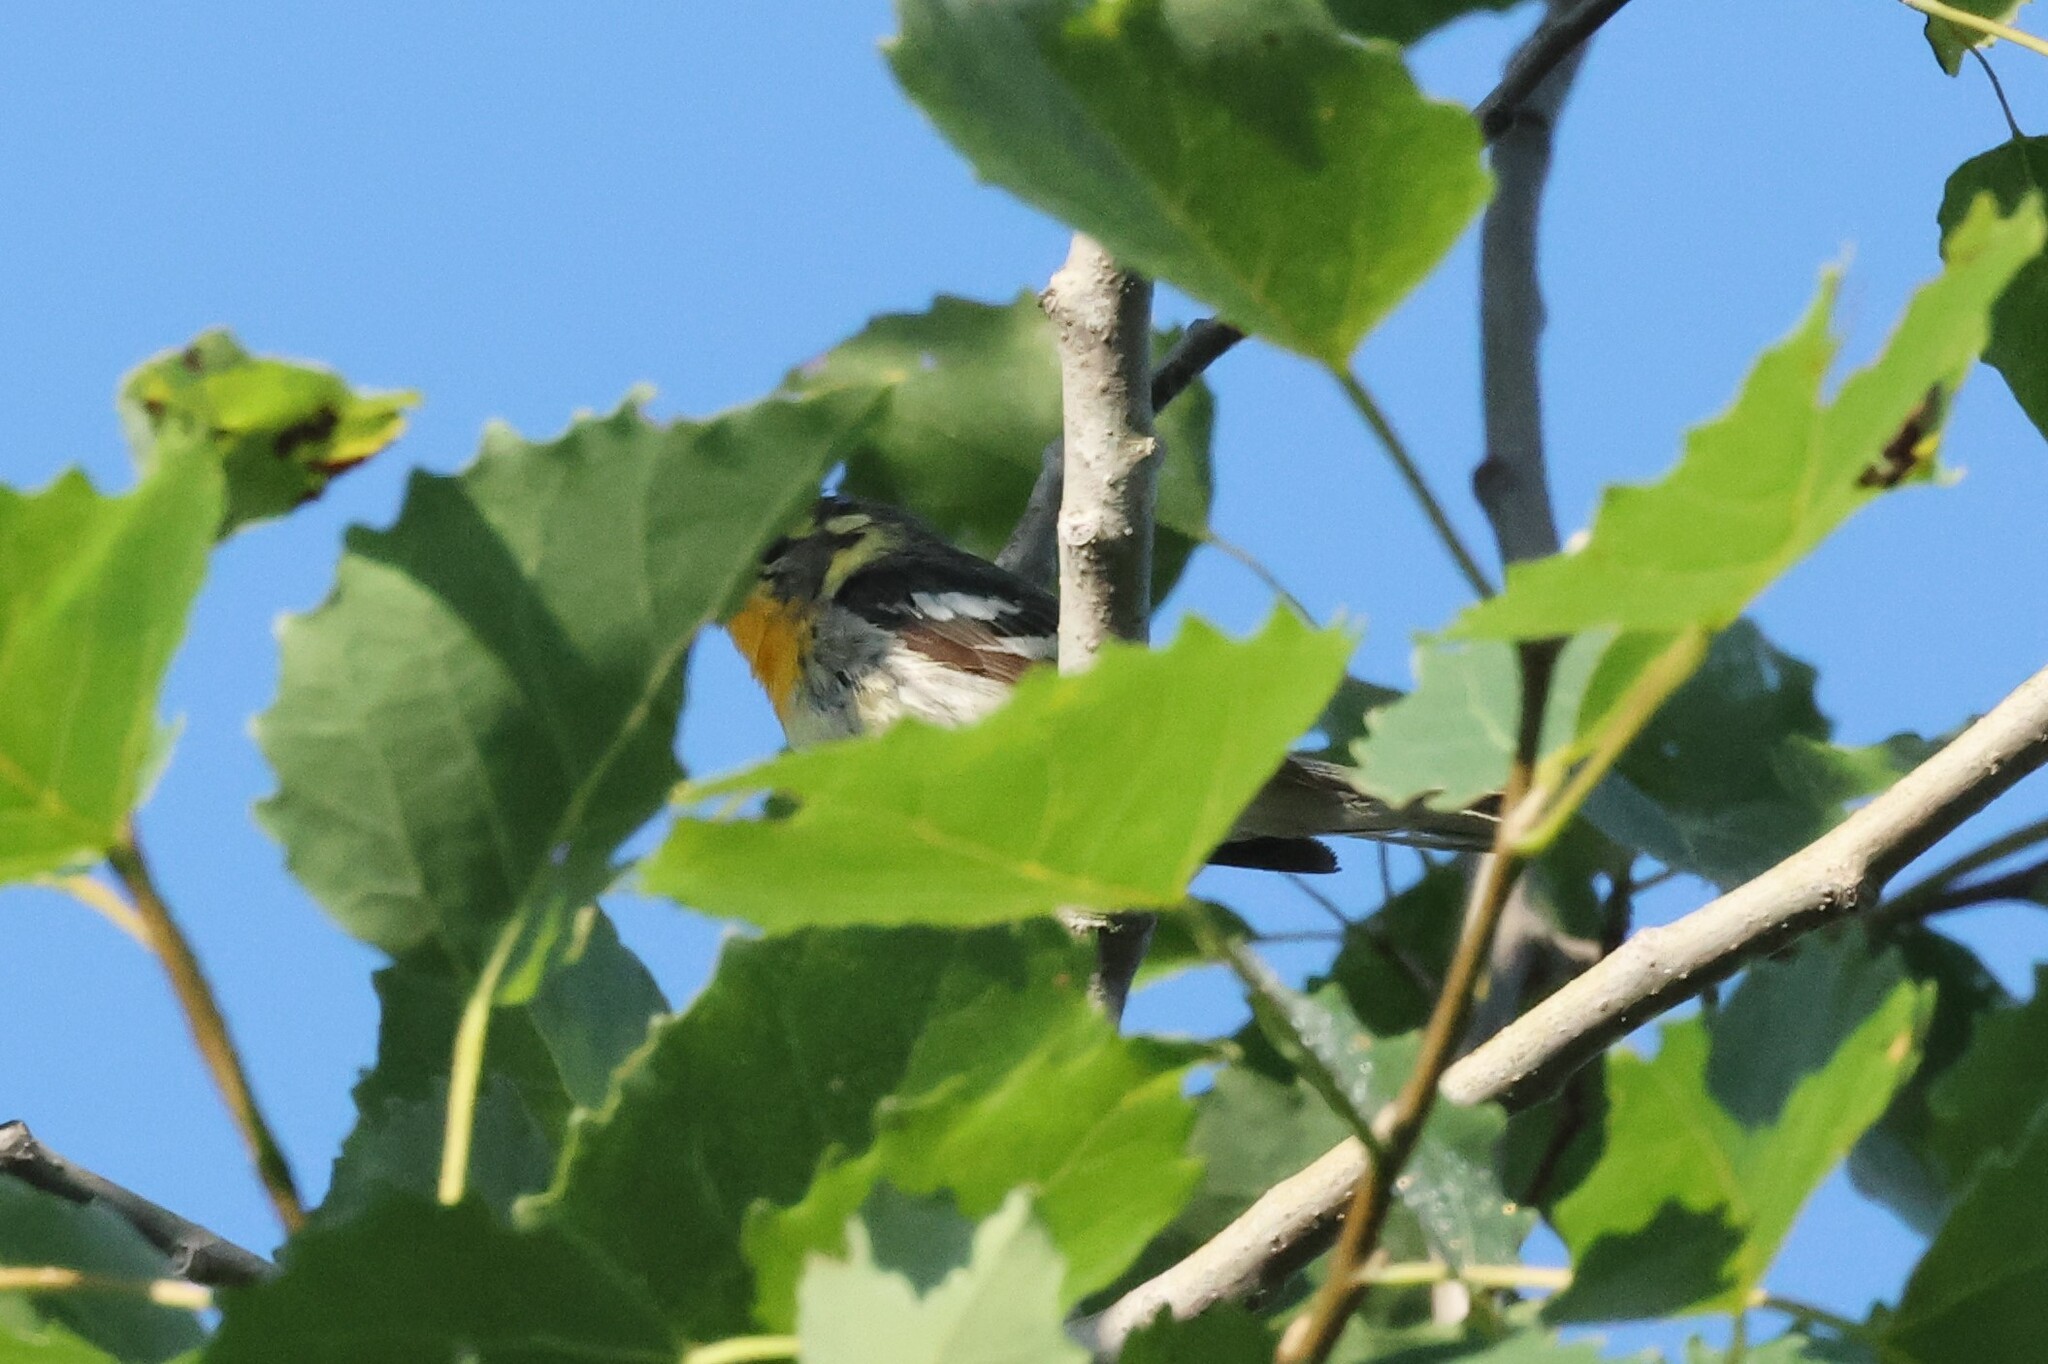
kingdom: Animalia
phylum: Chordata
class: Aves
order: Passeriformes
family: Parulidae
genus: Setophaga
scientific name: Setophaga fusca
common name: Blackburnian warbler
